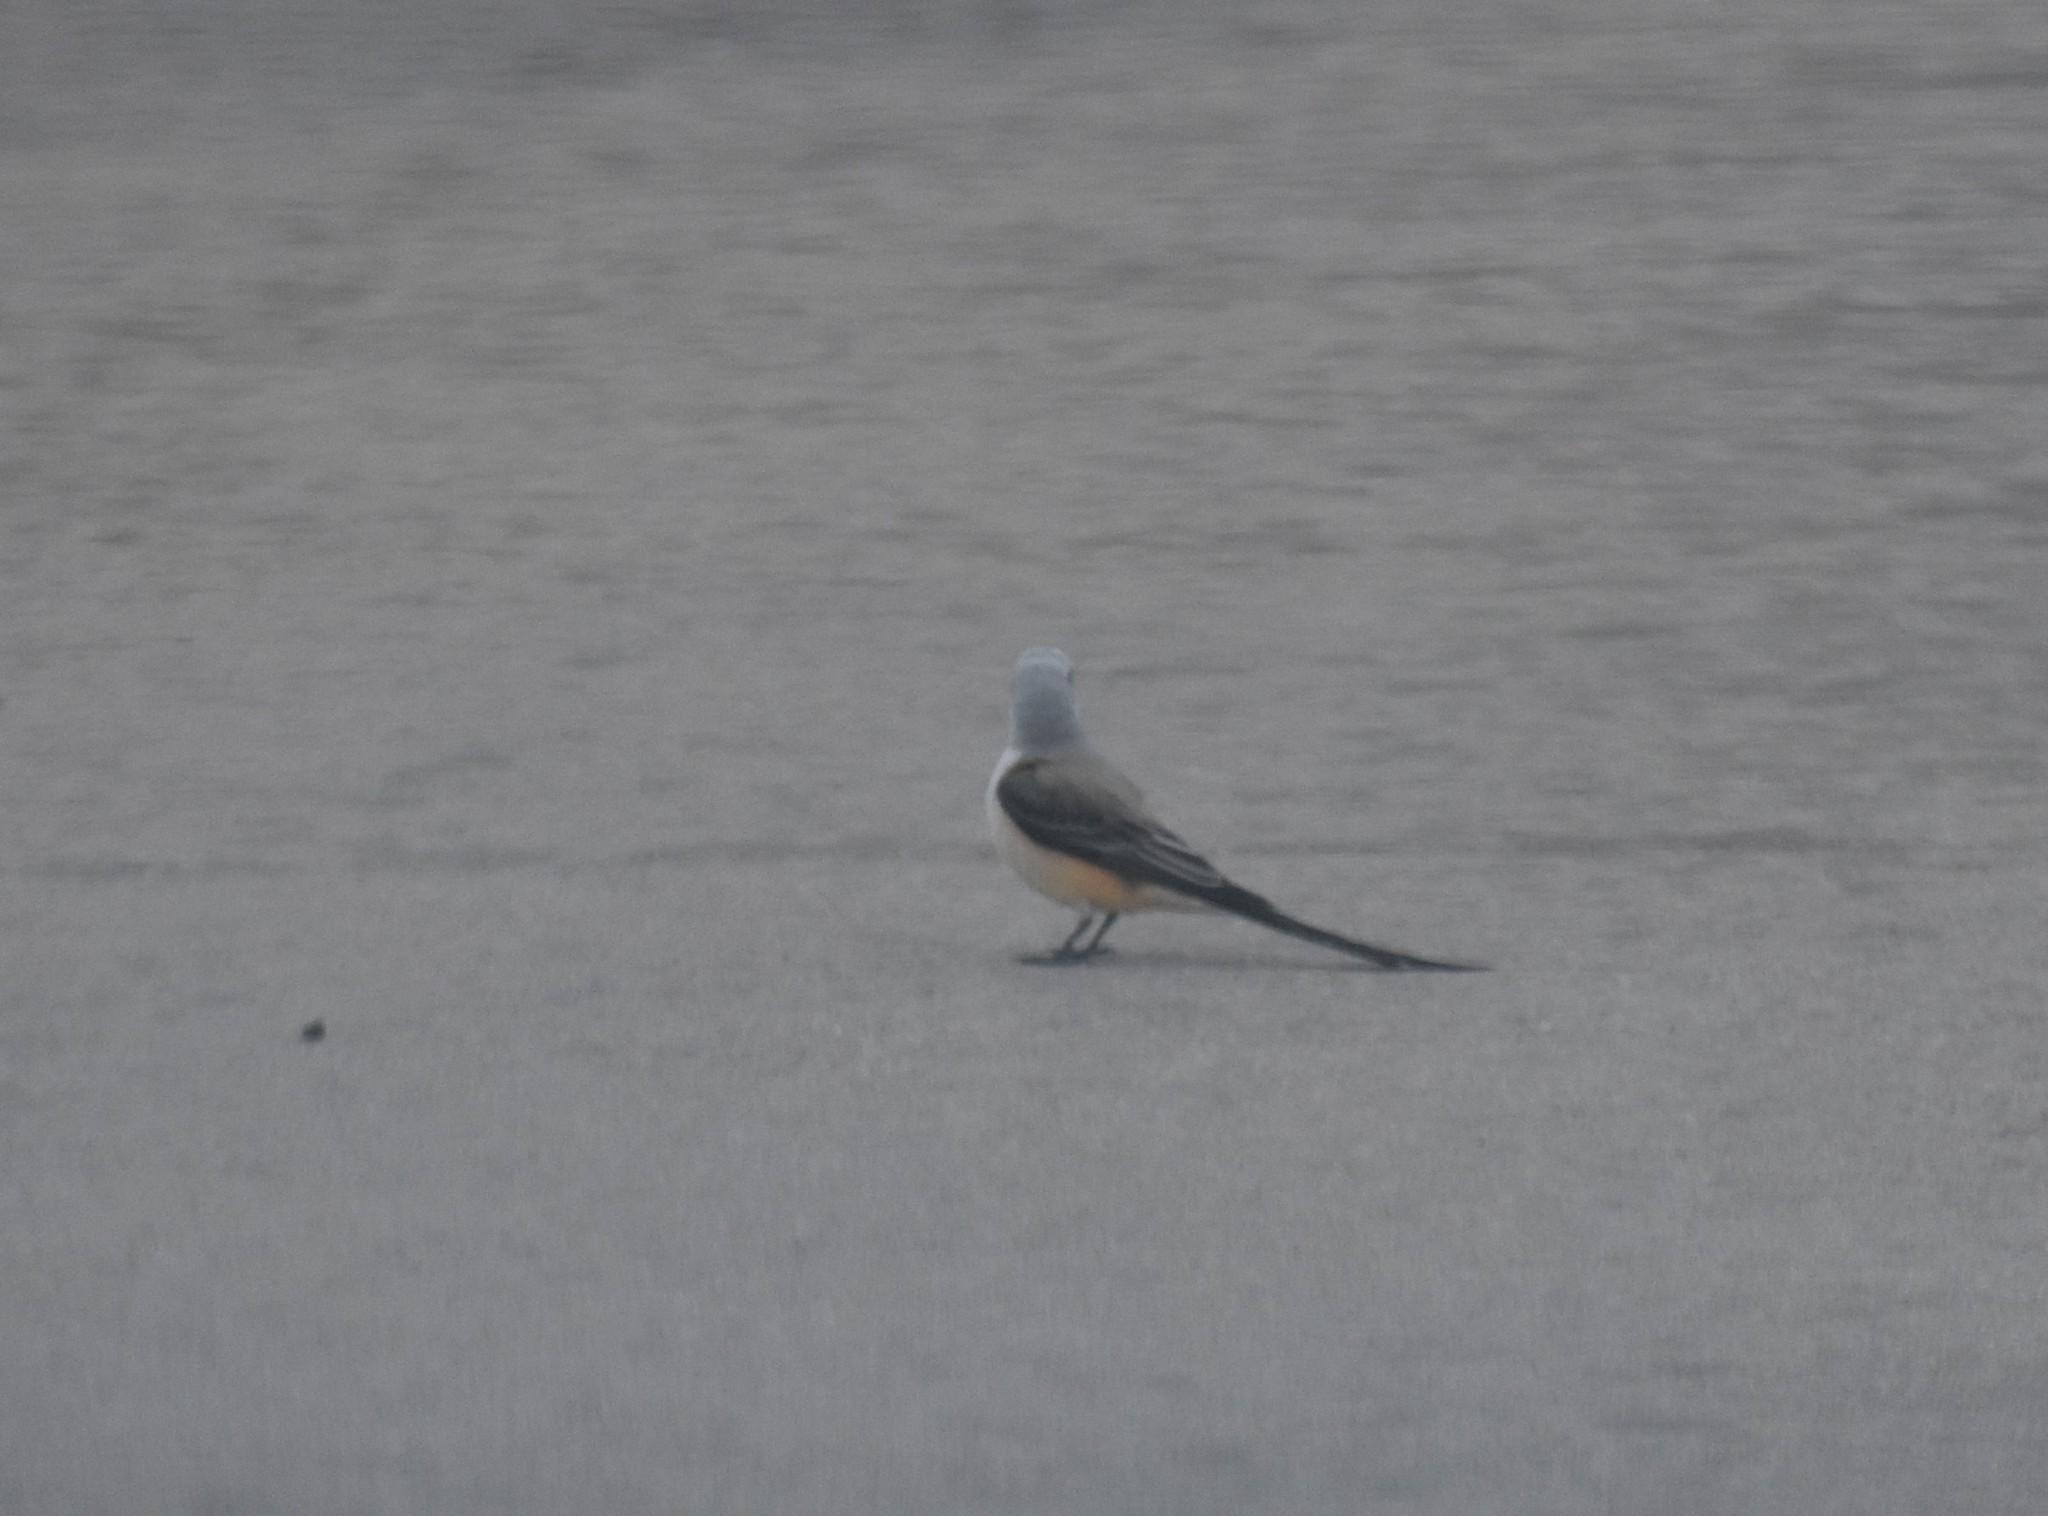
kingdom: Animalia
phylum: Chordata
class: Aves
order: Passeriformes
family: Tyrannidae
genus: Tyrannus
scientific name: Tyrannus forficatus
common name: Scissor-tailed flycatcher
